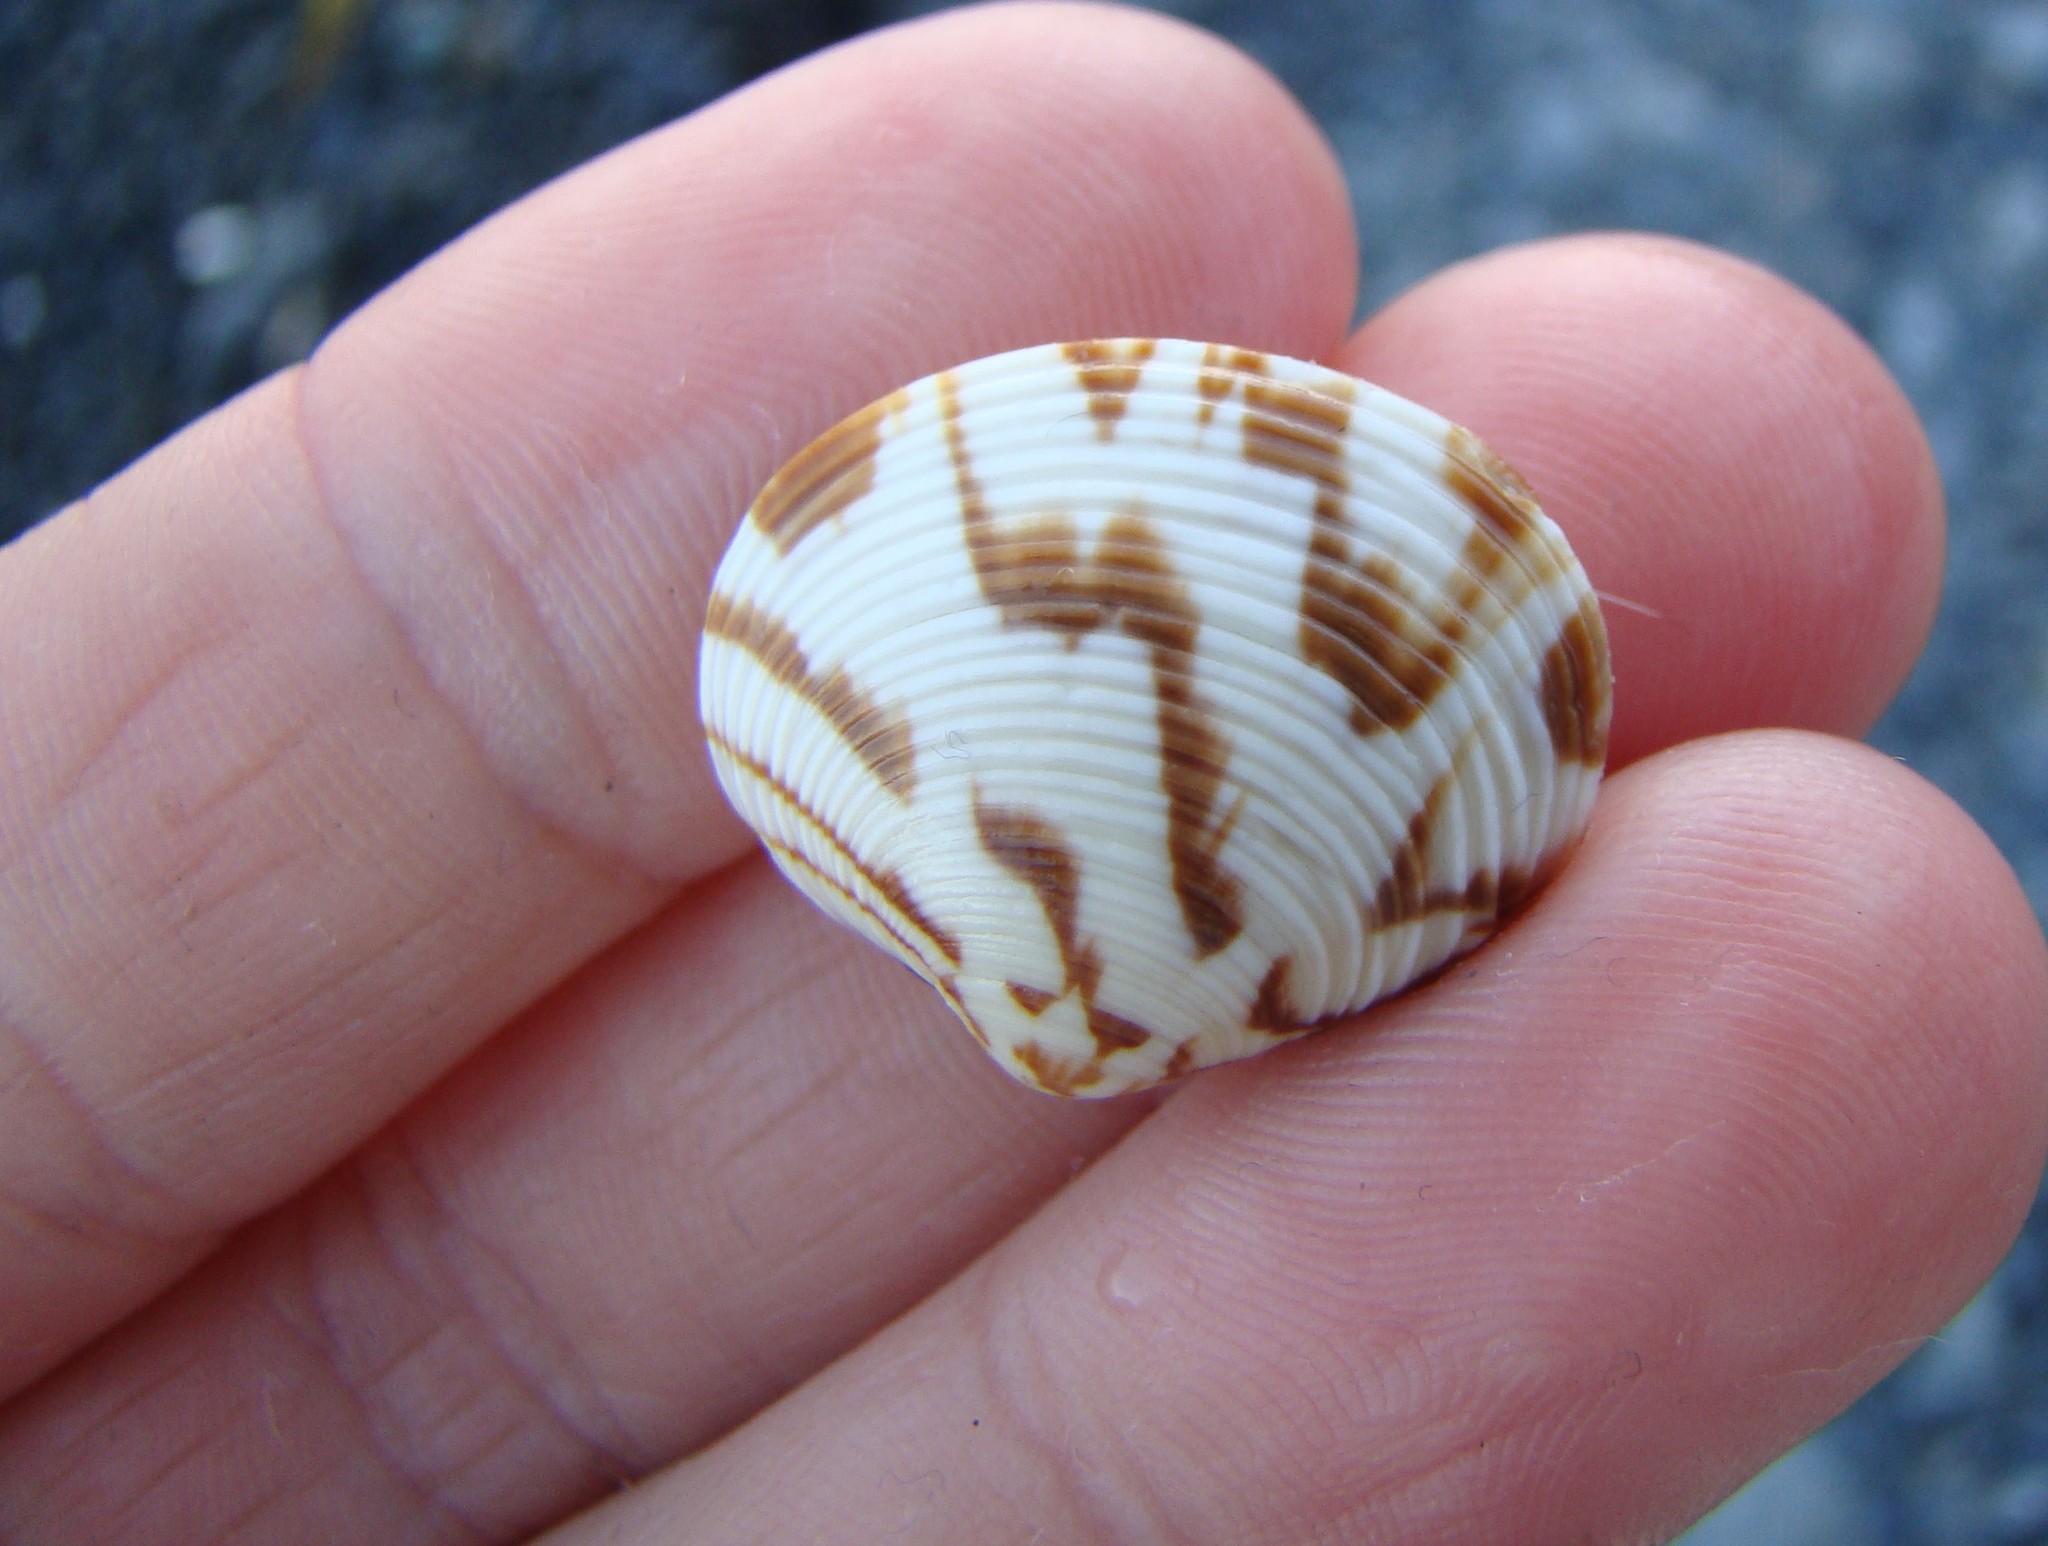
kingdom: Animalia
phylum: Mollusca
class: Bivalvia
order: Venerida
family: Veneridae
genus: Tawera
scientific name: Tawera spissa
